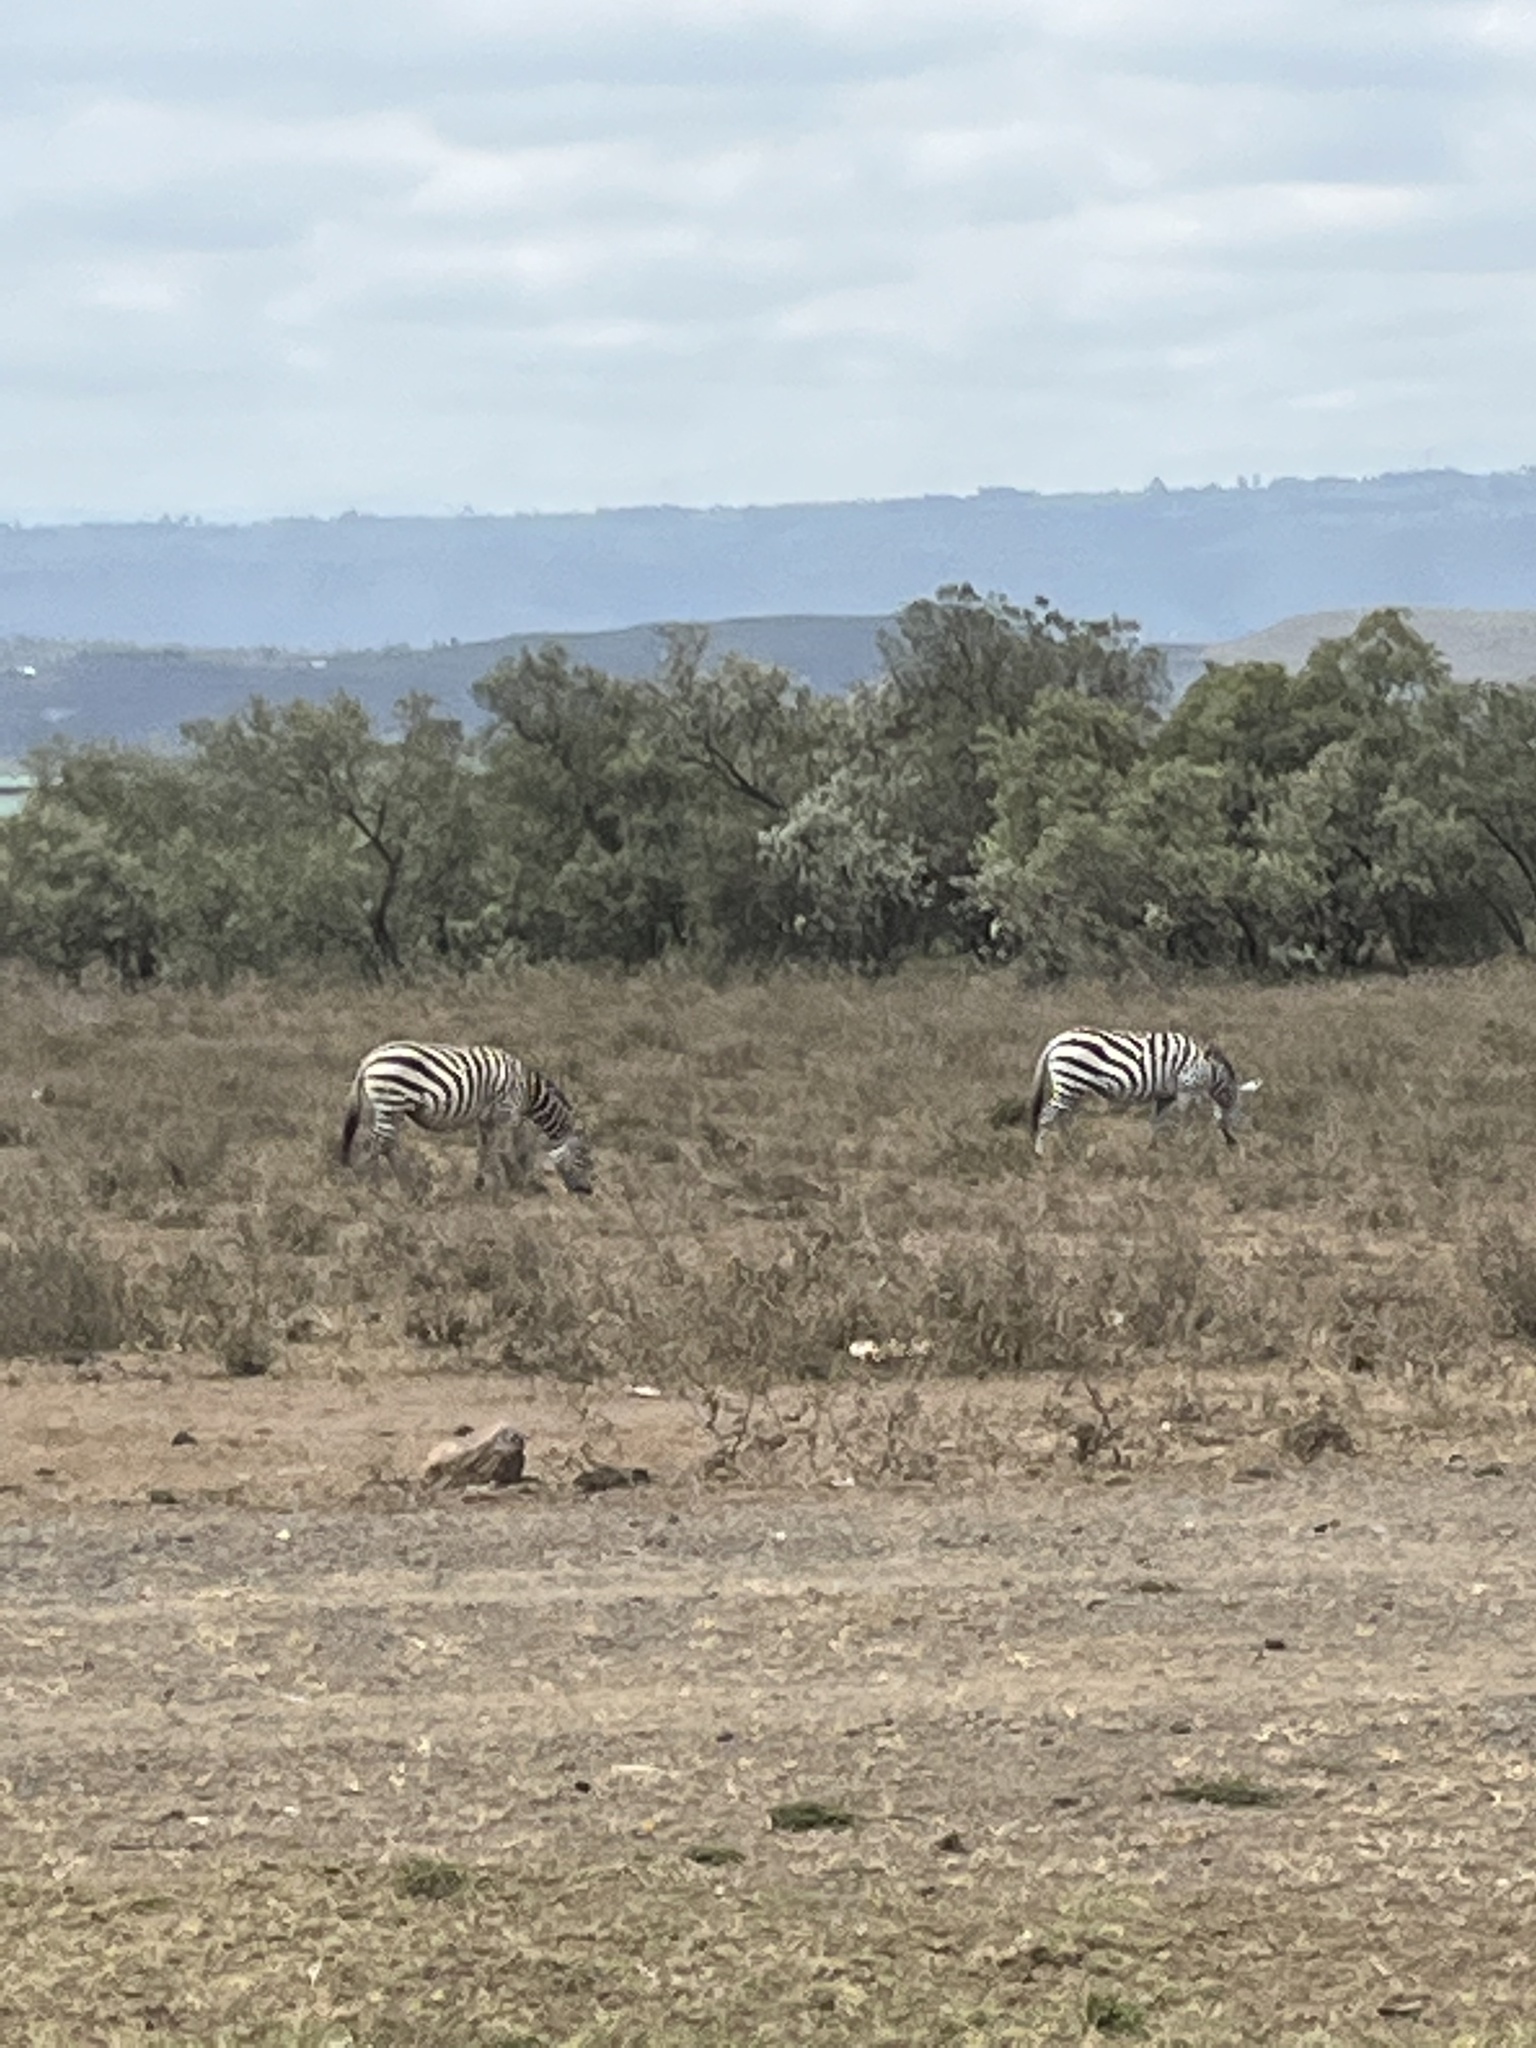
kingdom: Animalia
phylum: Chordata
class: Mammalia
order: Perissodactyla
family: Equidae
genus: Equus
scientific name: Equus quagga
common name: Plains zebra
